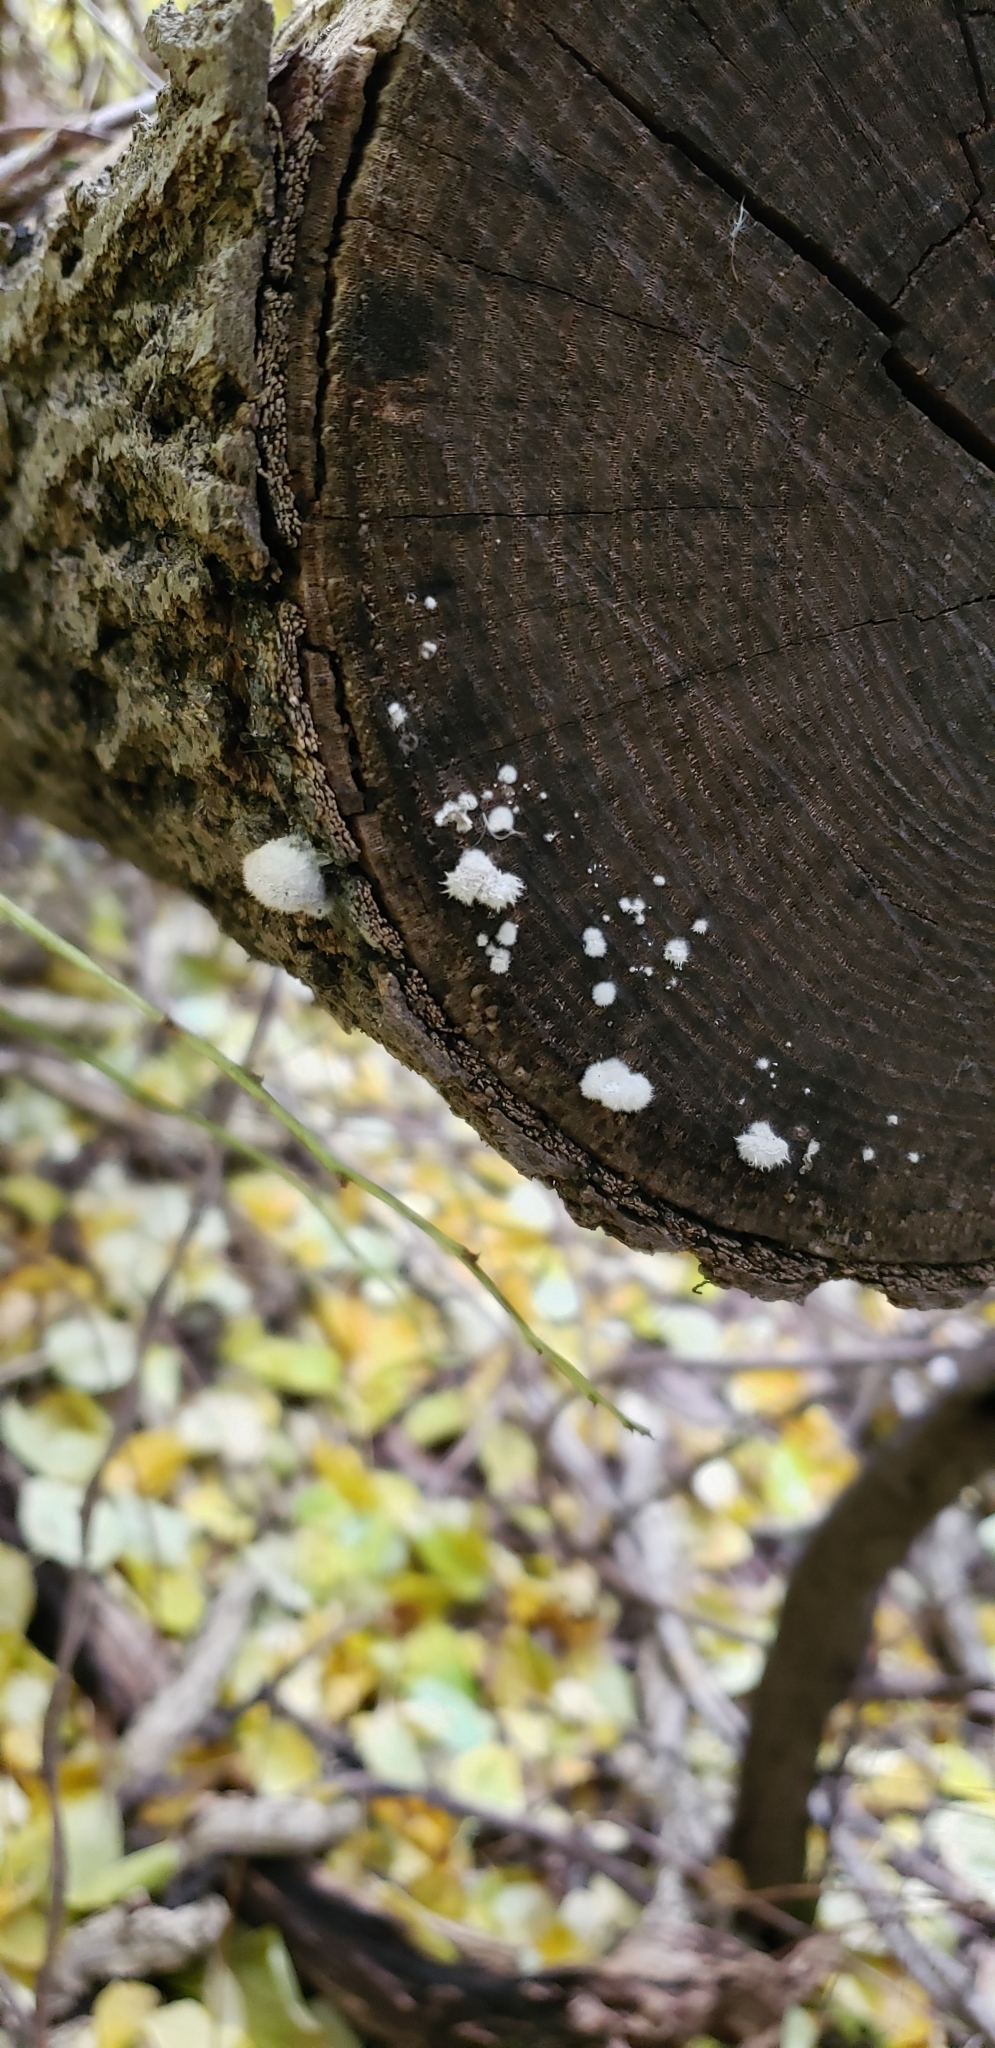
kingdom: Fungi
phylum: Basidiomycota
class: Agaricomycetes
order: Agaricales
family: Schizophyllaceae
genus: Schizophyllum
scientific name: Schizophyllum commune
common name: Common porecrust
